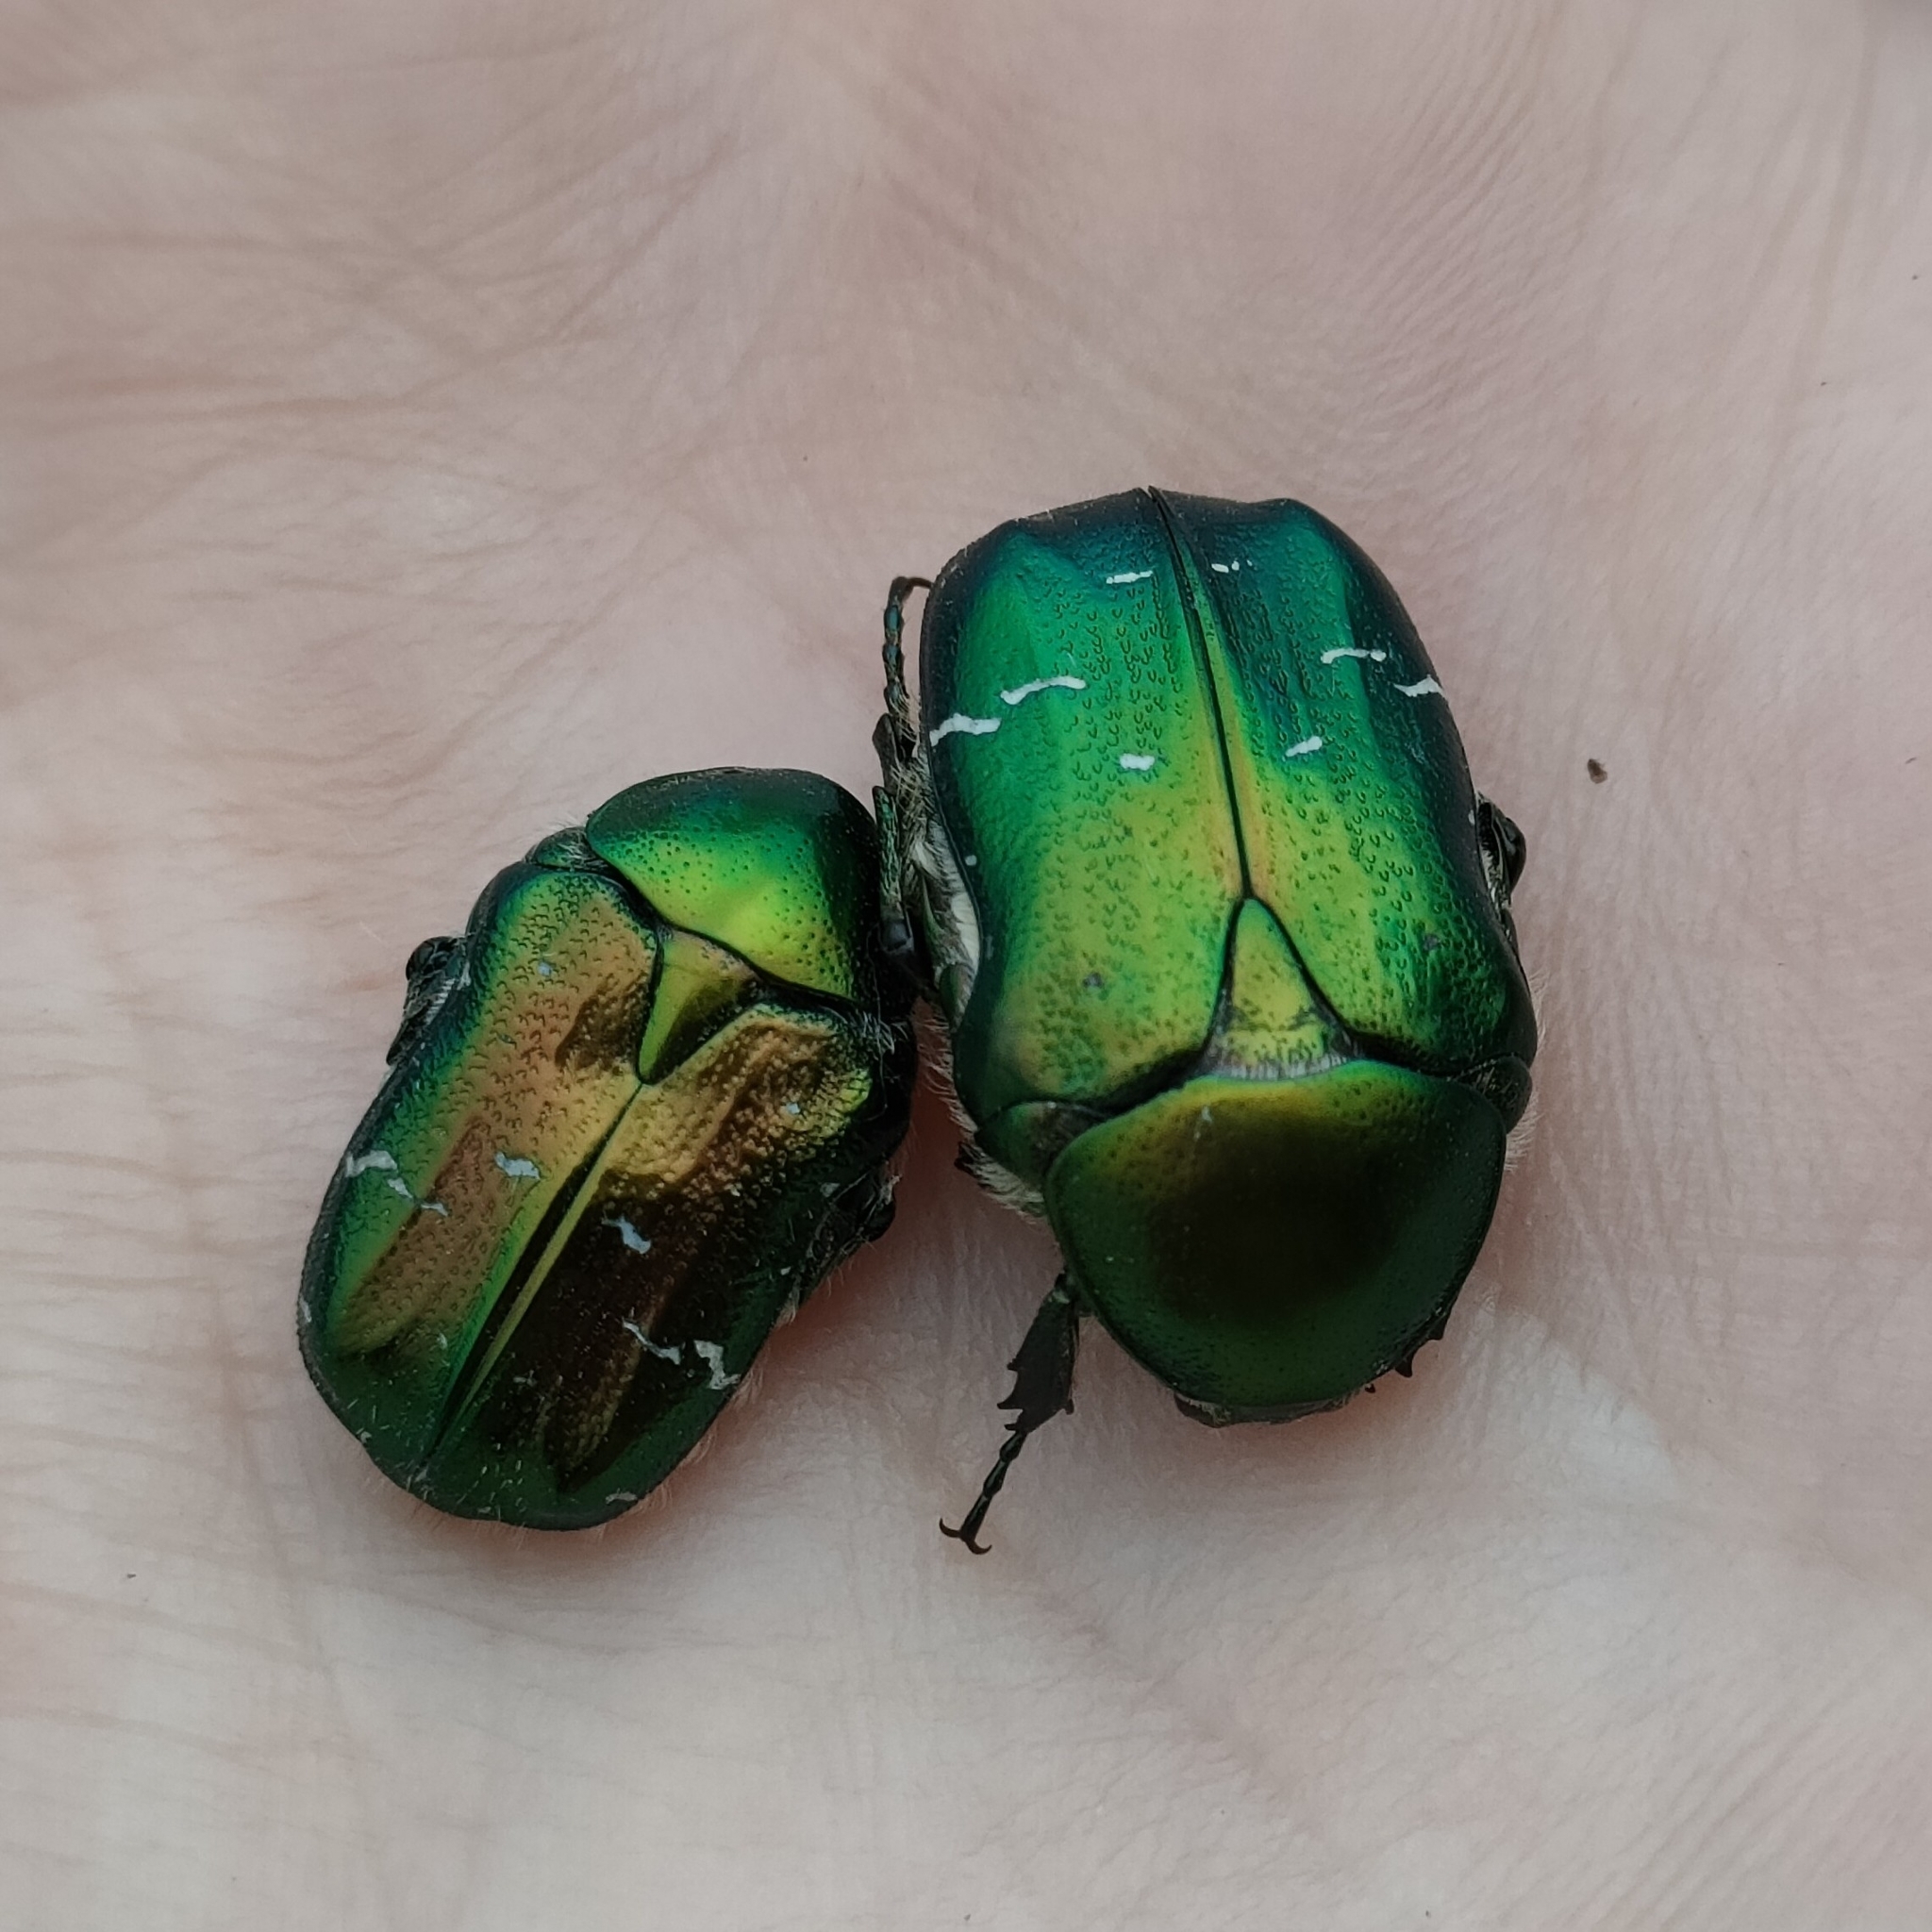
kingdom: Animalia
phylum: Arthropoda
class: Insecta
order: Coleoptera
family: Scarabaeidae
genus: Cetonia
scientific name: Cetonia aurata
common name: Rose chafer
